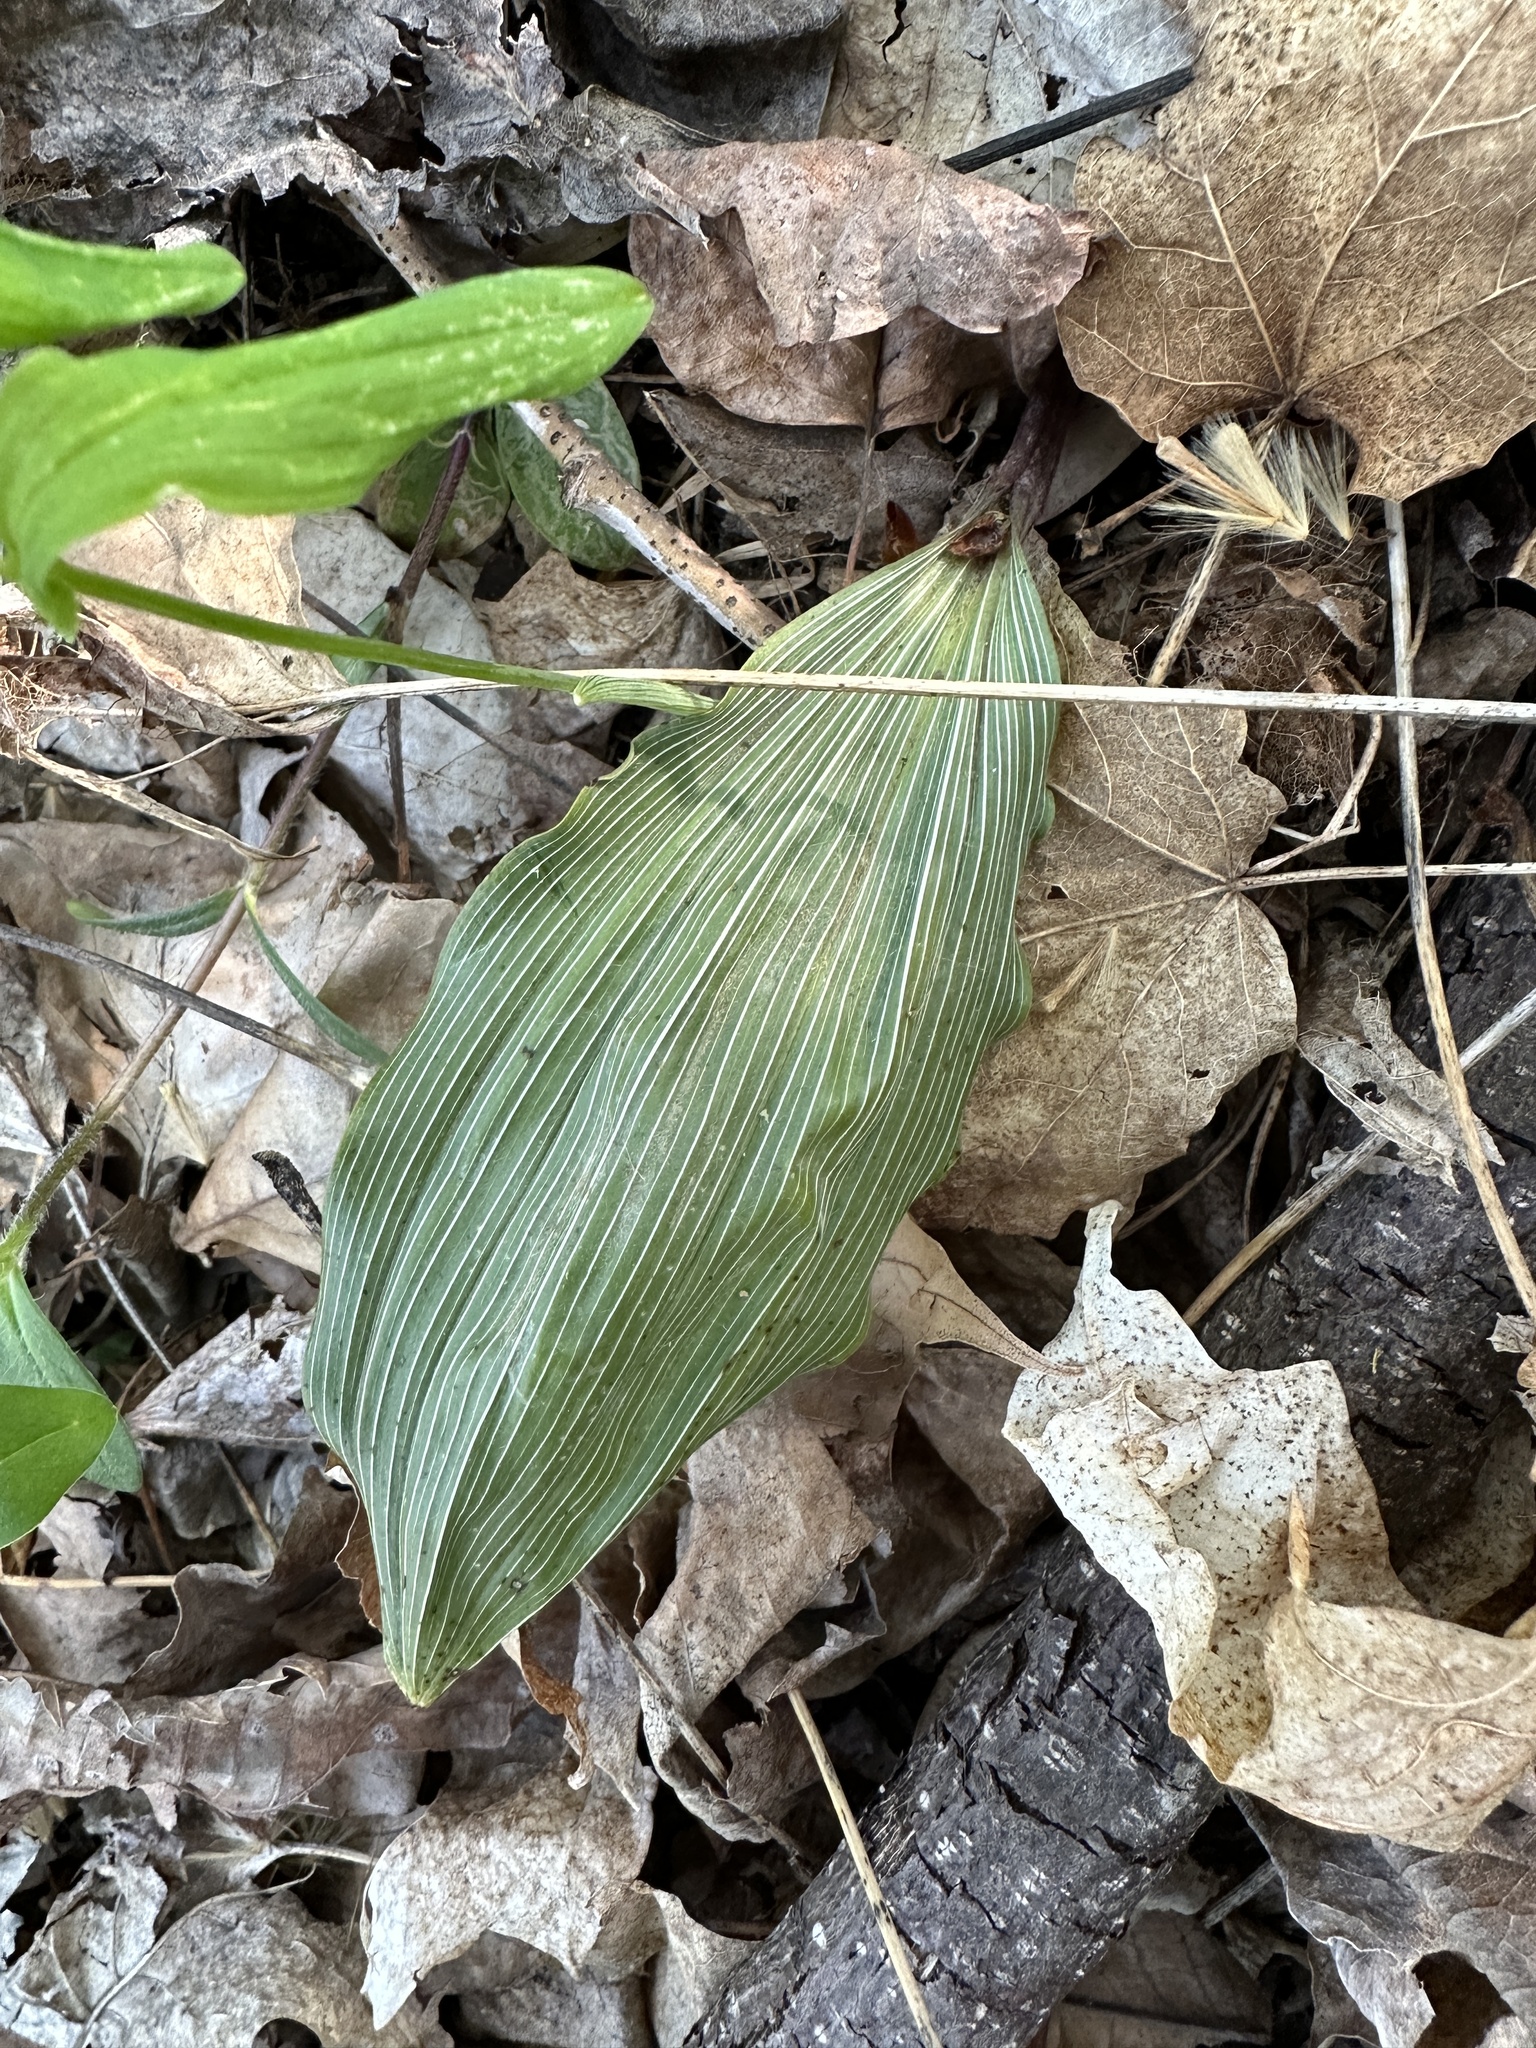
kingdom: Plantae
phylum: Tracheophyta
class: Liliopsida
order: Asparagales
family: Orchidaceae
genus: Aplectrum
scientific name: Aplectrum hyemale
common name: Adam-and-eve
